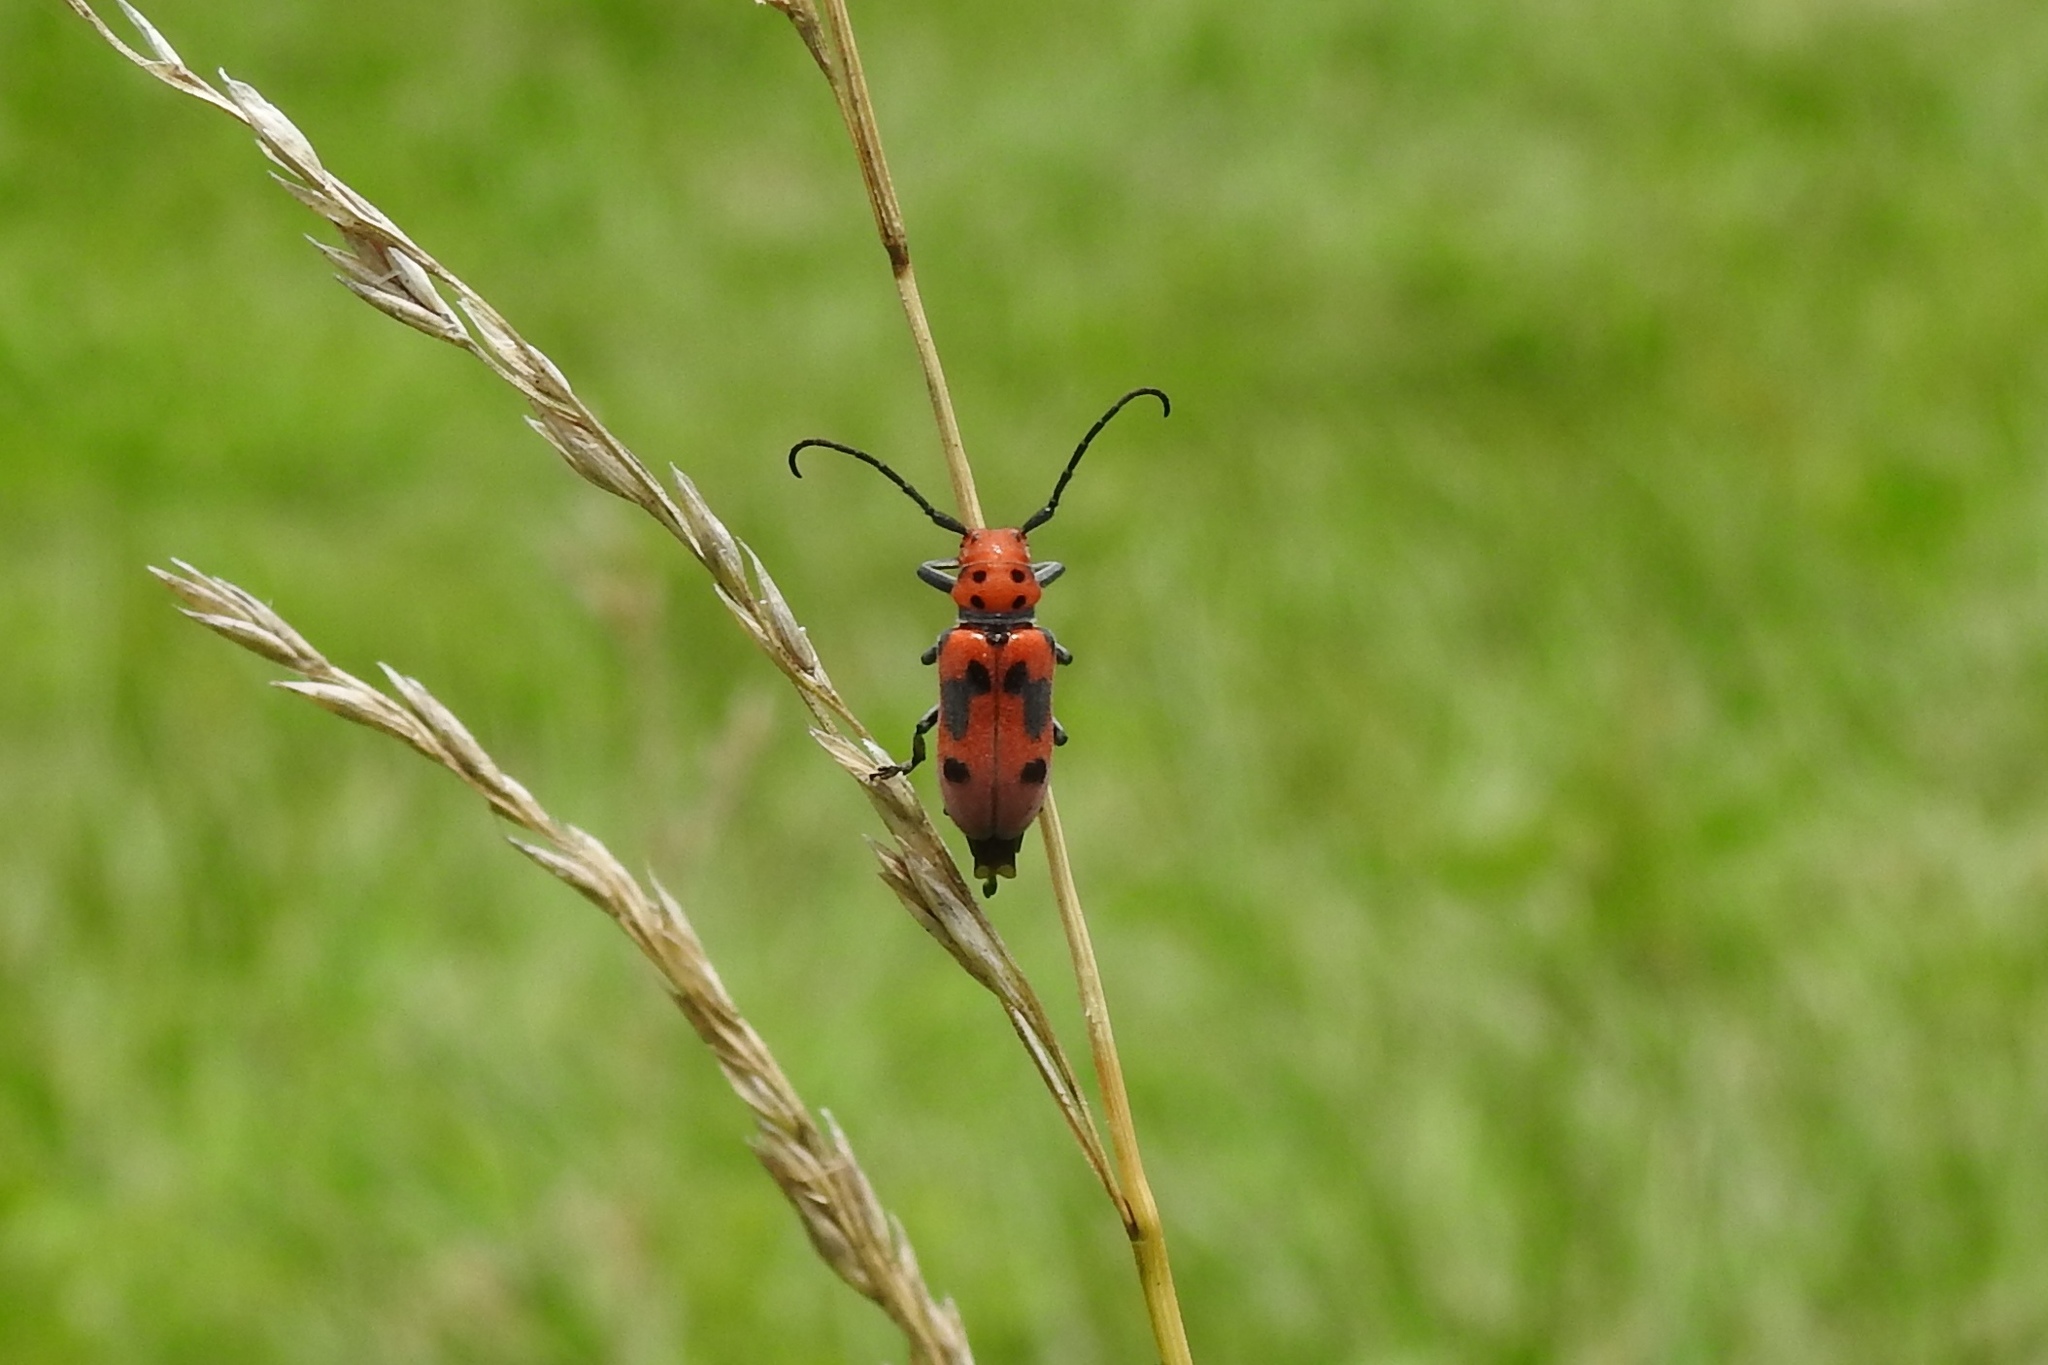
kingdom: Animalia
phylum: Arthropoda
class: Insecta
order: Coleoptera
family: Cerambycidae
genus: Tetraopes
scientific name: Tetraopes tetrophthalmus
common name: Red milkweed beetle
